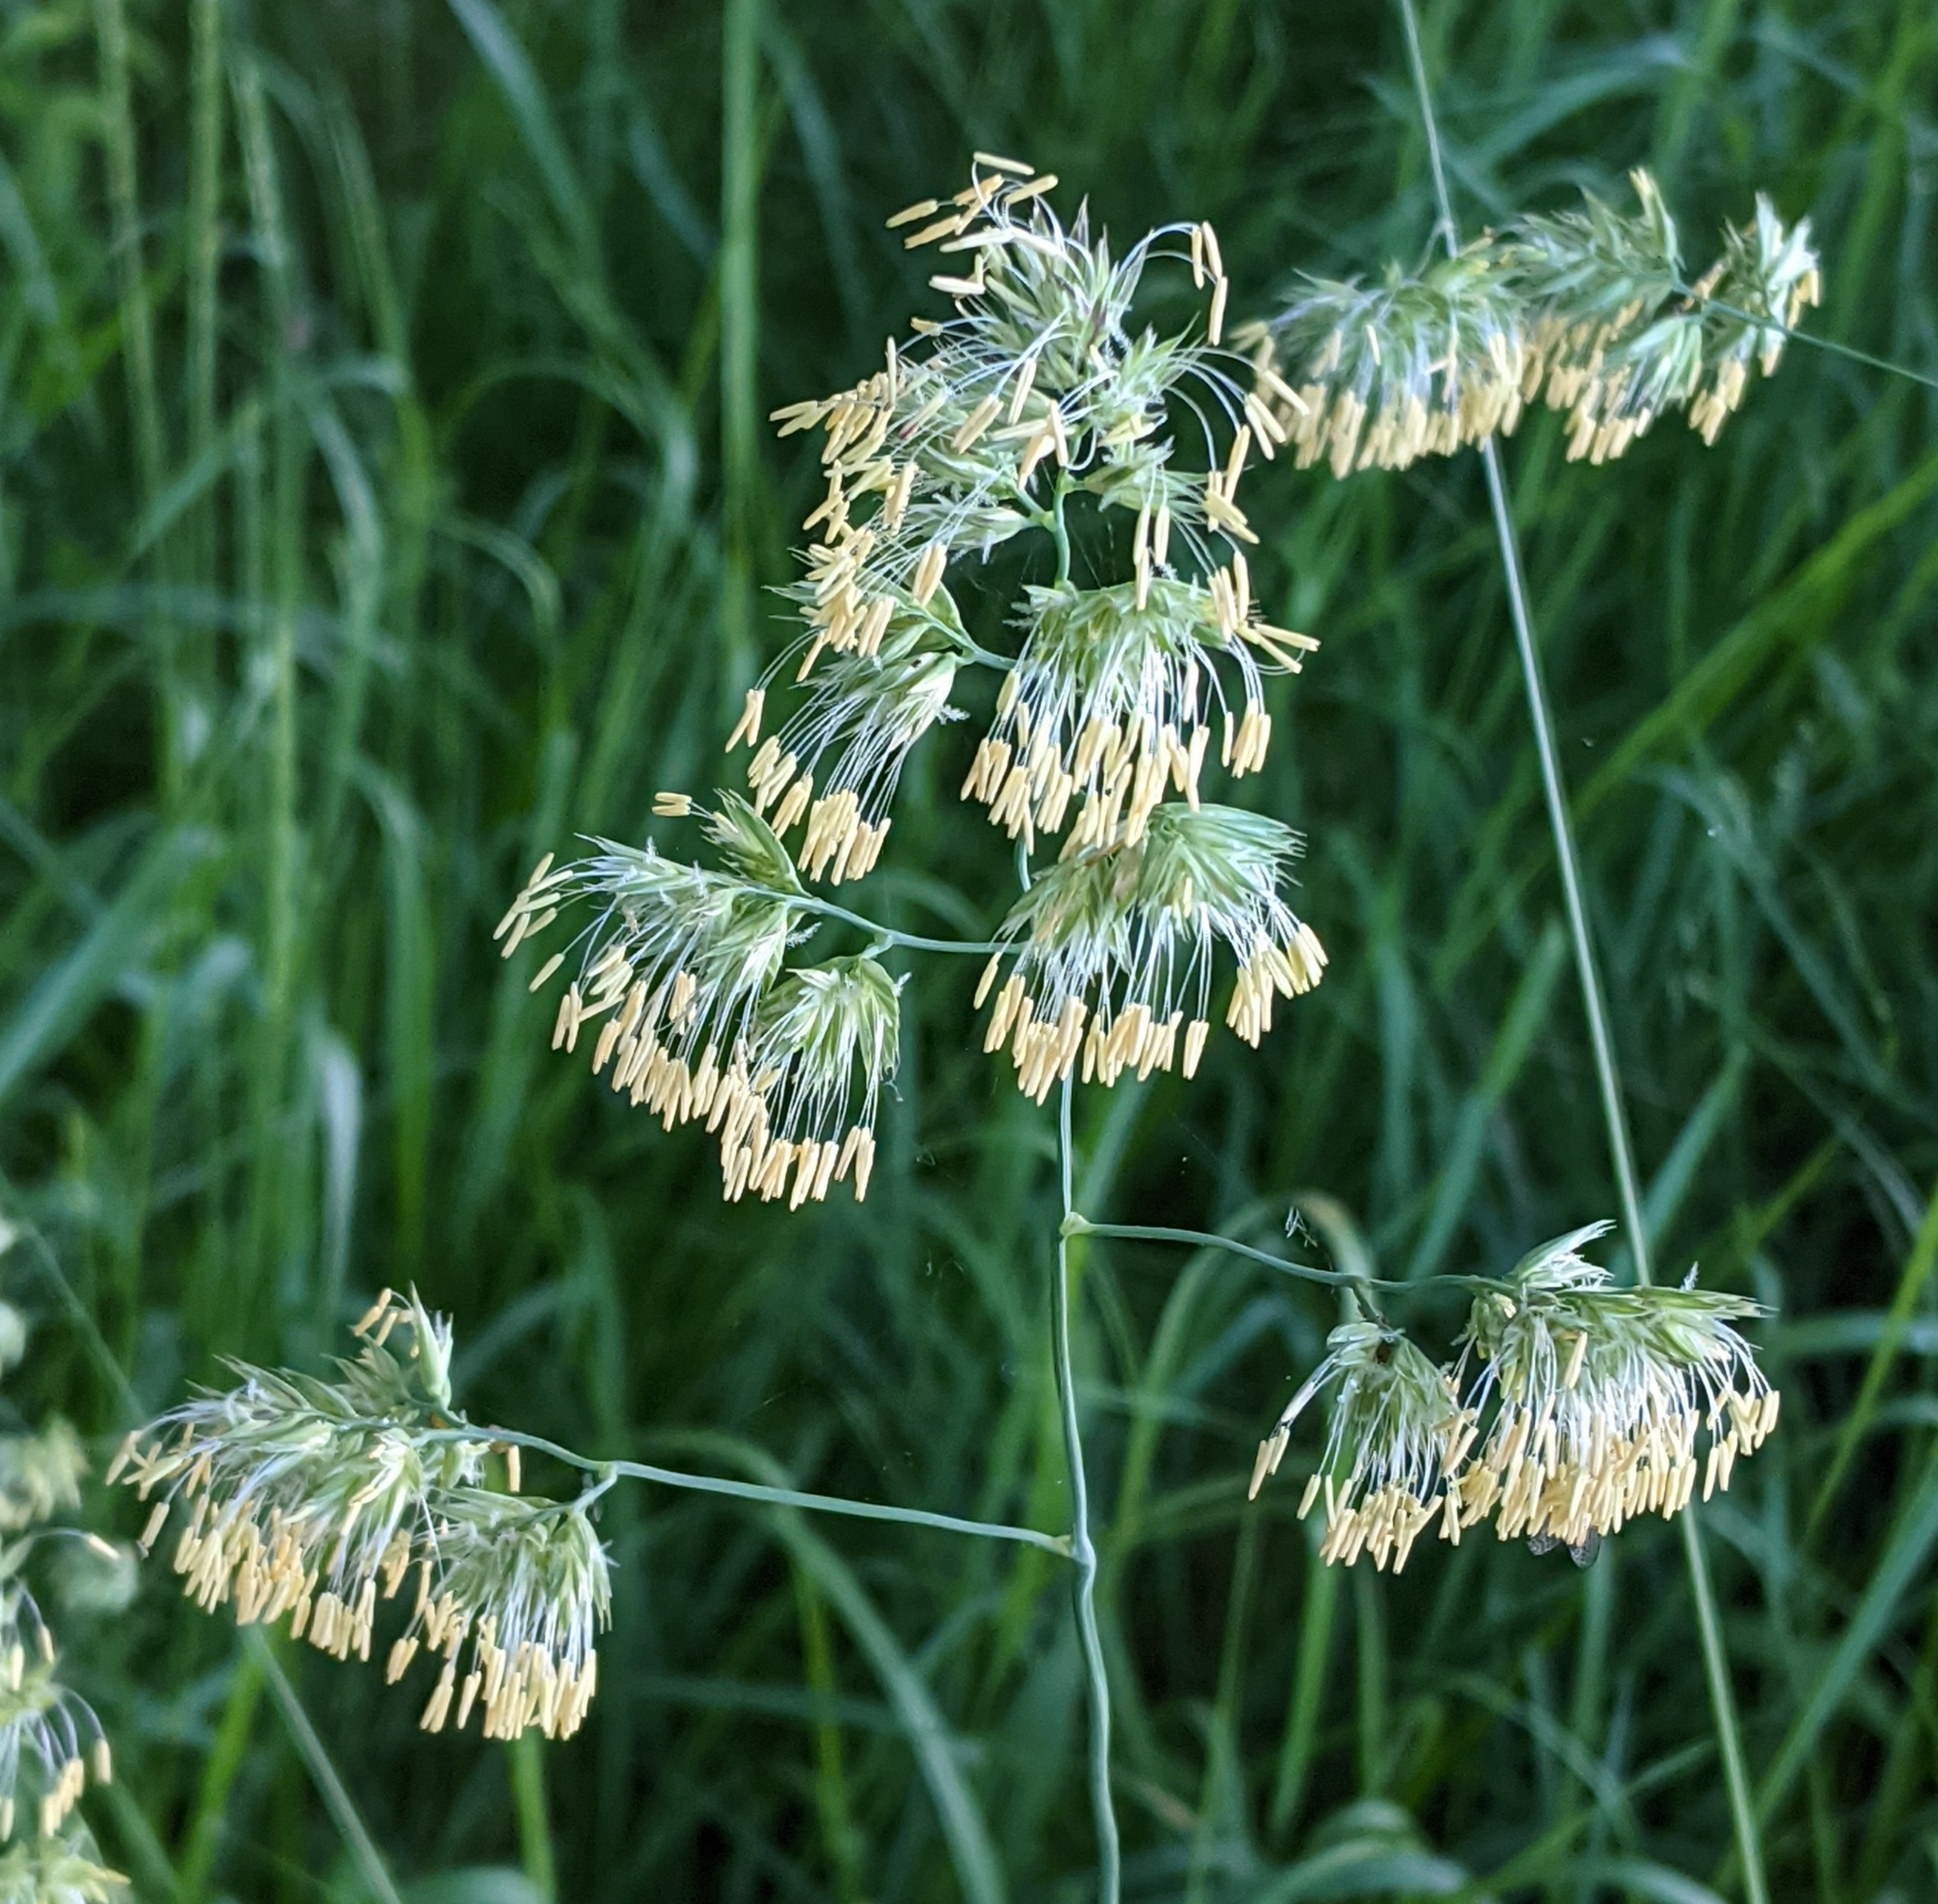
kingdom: Plantae
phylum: Tracheophyta
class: Liliopsida
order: Poales
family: Poaceae
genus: Dactylis
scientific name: Dactylis glomerata
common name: Orchardgrass
